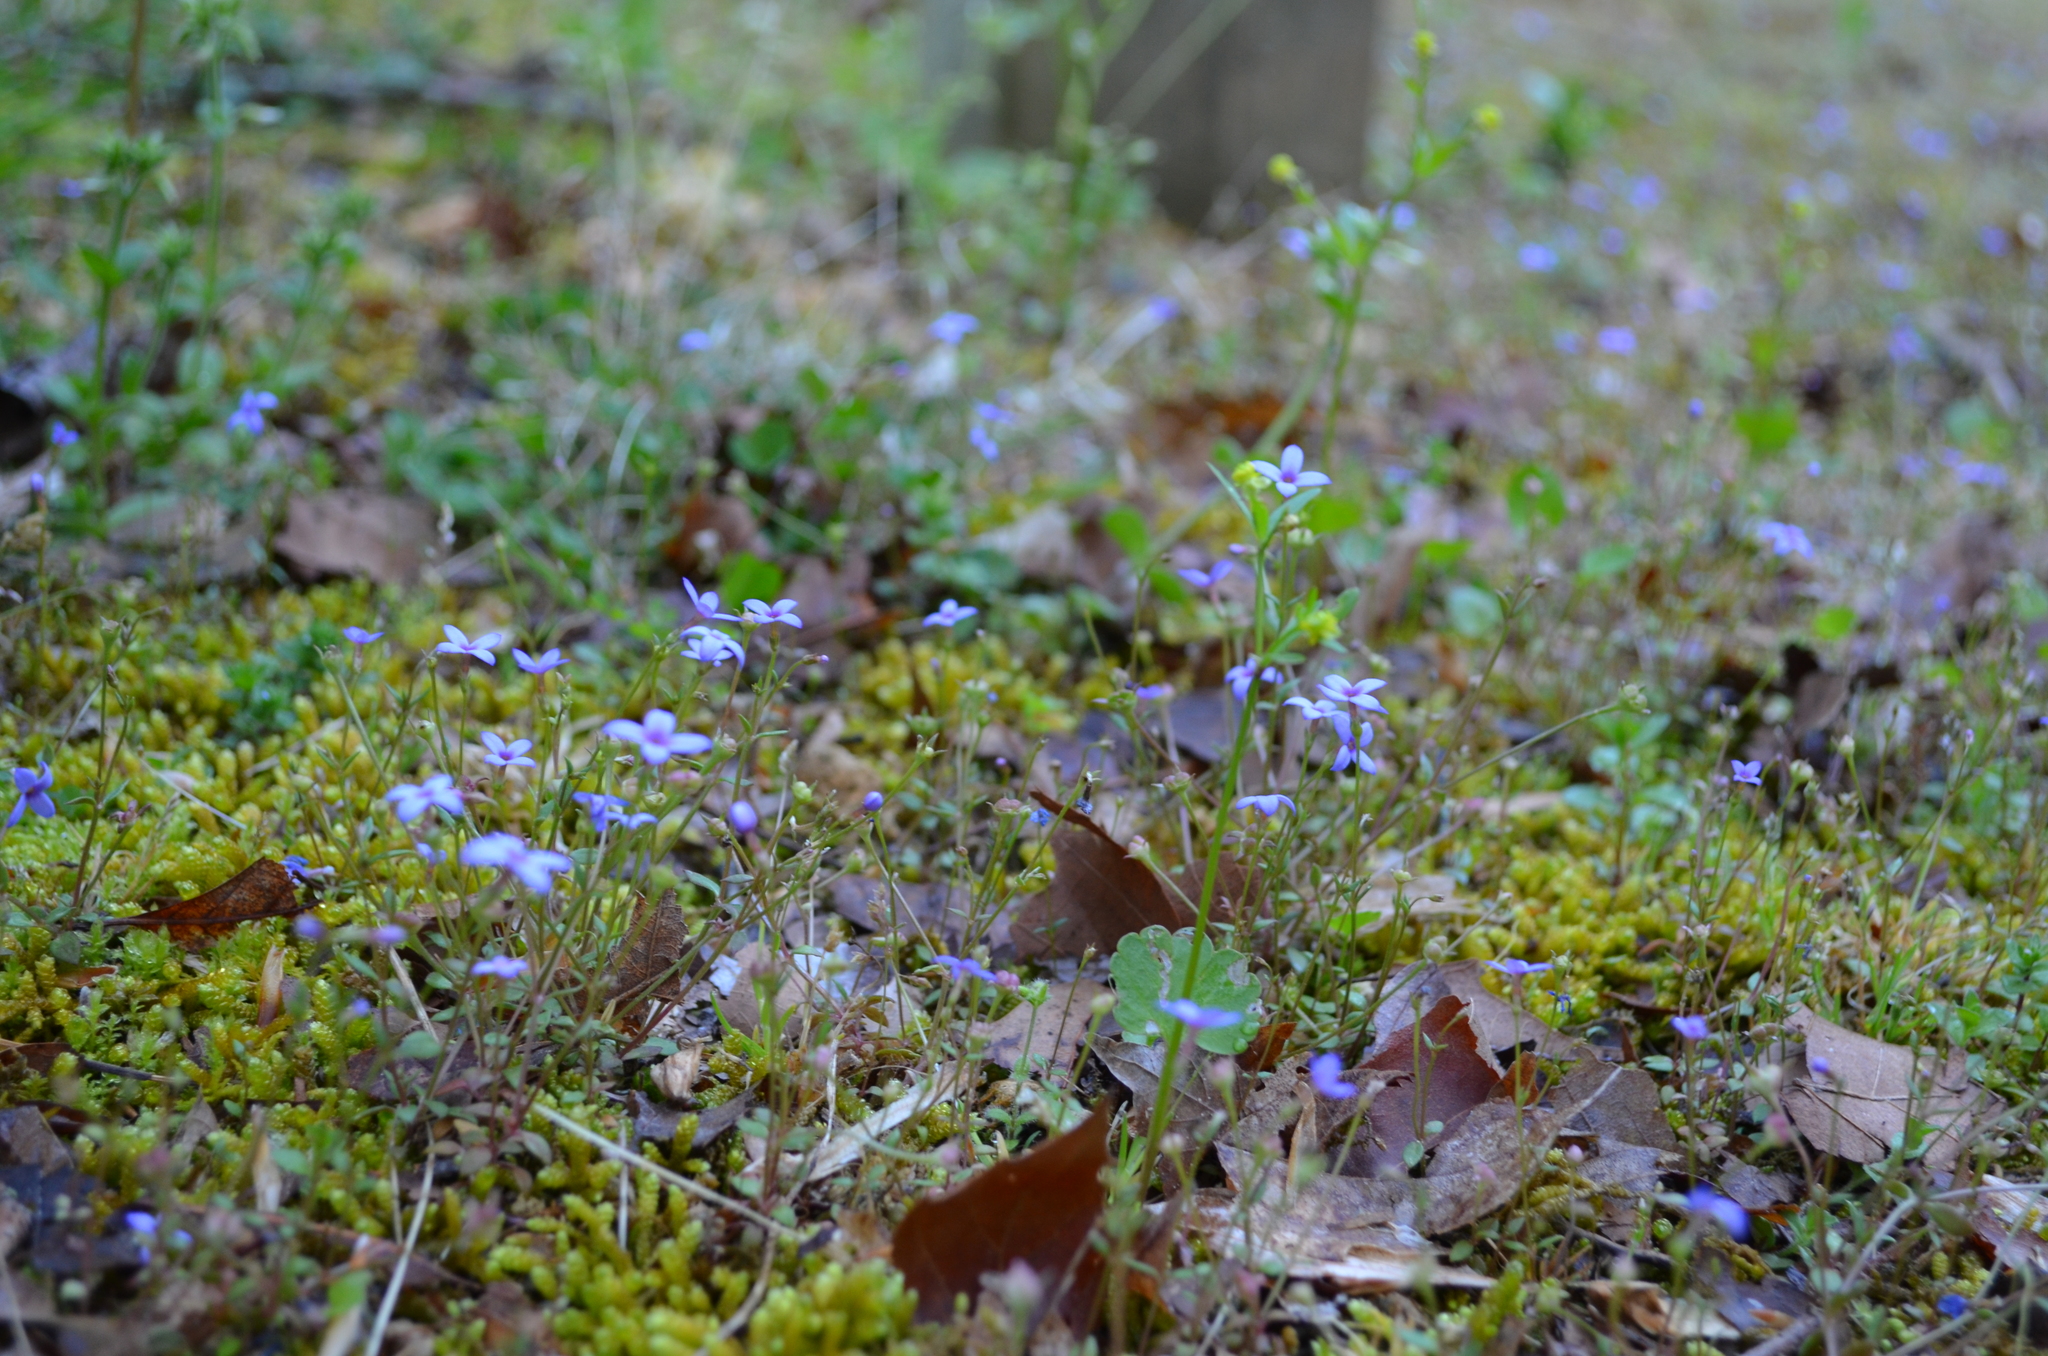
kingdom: Plantae
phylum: Tracheophyta
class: Magnoliopsida
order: Gentianales
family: Rubiaceae
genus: Houstonia
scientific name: Houstonia pusilla
